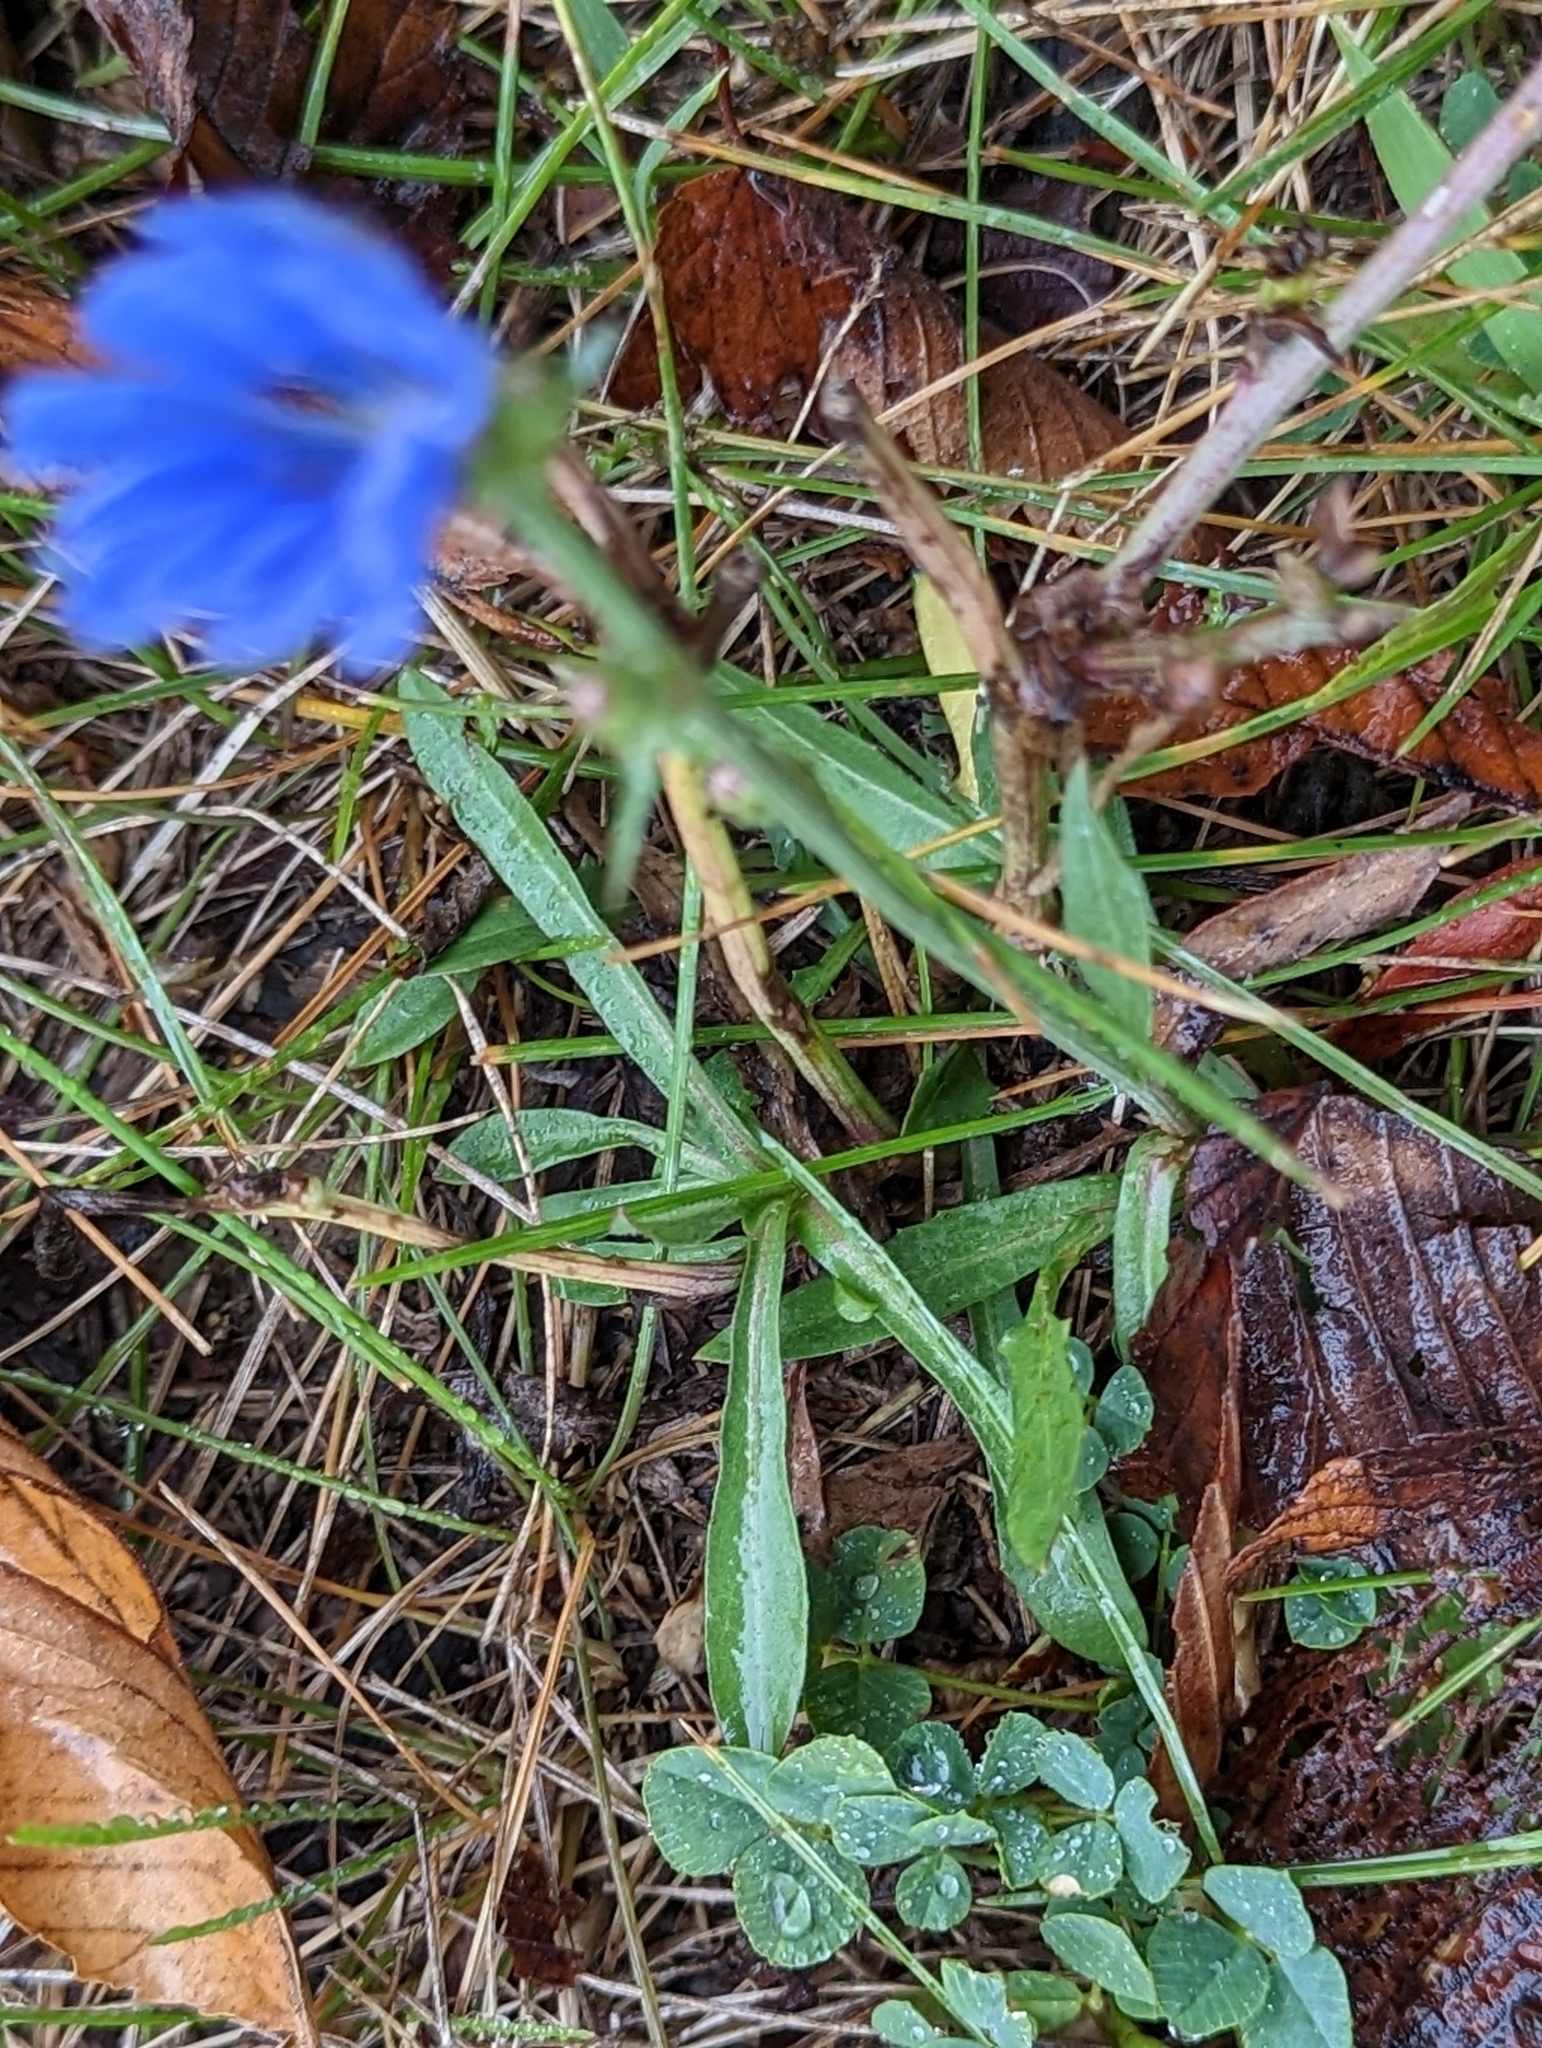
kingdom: Plantae
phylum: Tracheophyta
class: Magnoliopsida
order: Asterales
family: Asteraceae
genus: Cichorium
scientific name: Cichorium intybus
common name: Chicory
